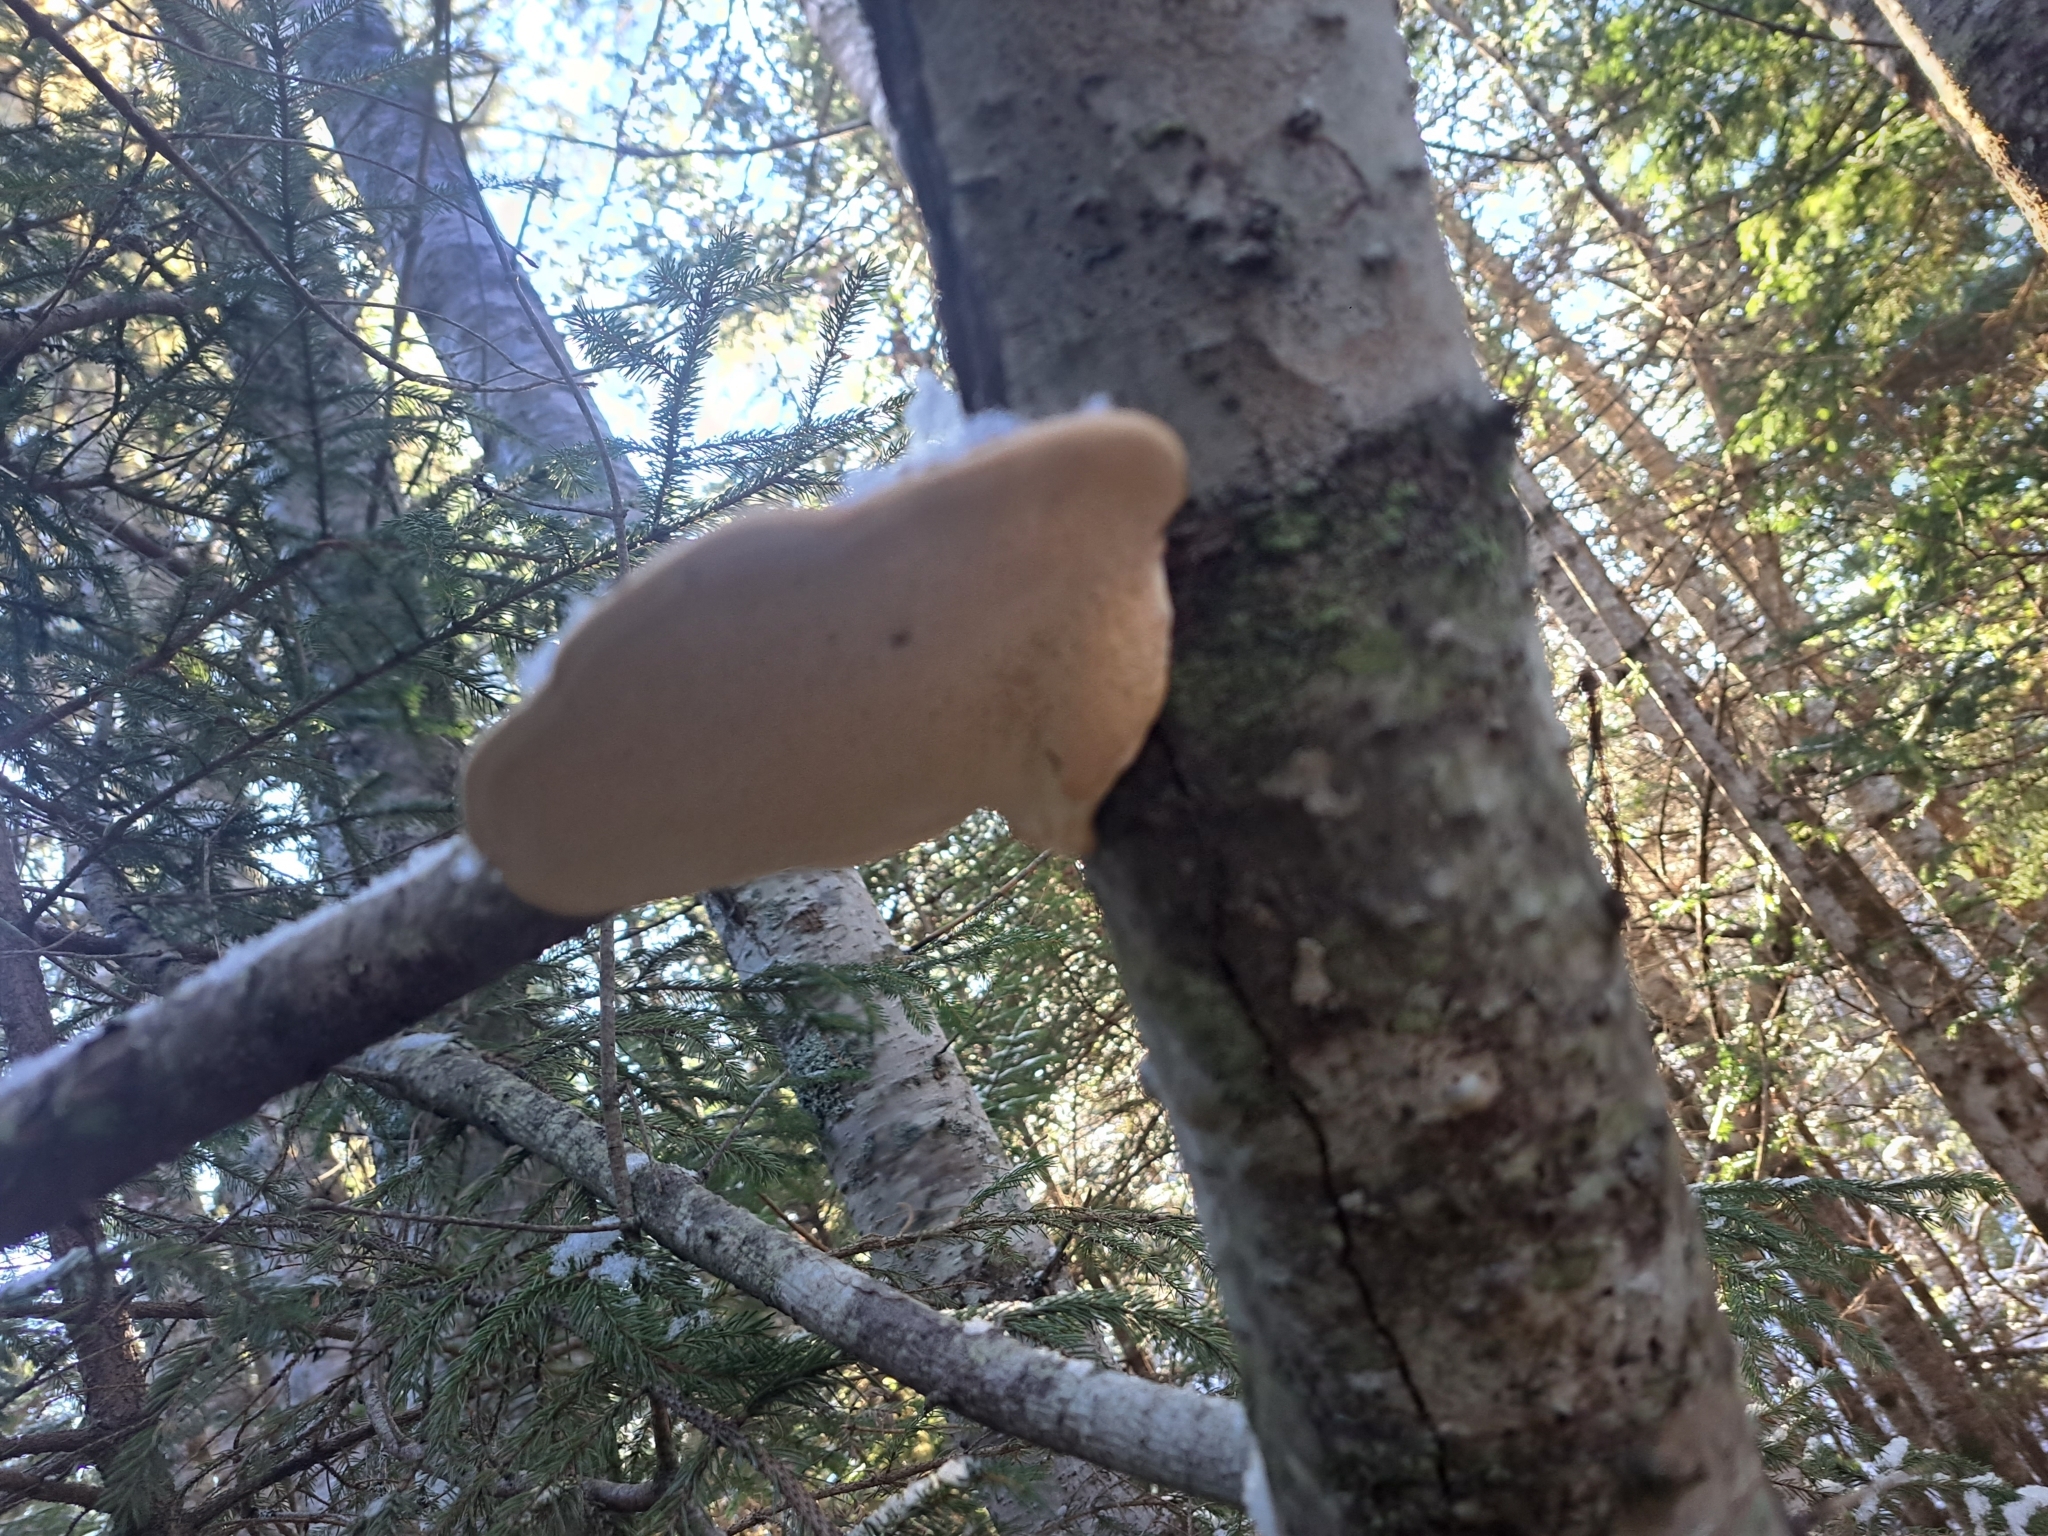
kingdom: Fungi
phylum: Basidiomycota
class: Agaricomycetes
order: Polyporales
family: Fomitopsidaceae
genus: Fomitopsis
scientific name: Fomitopsis mounceae
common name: Northern red belt
